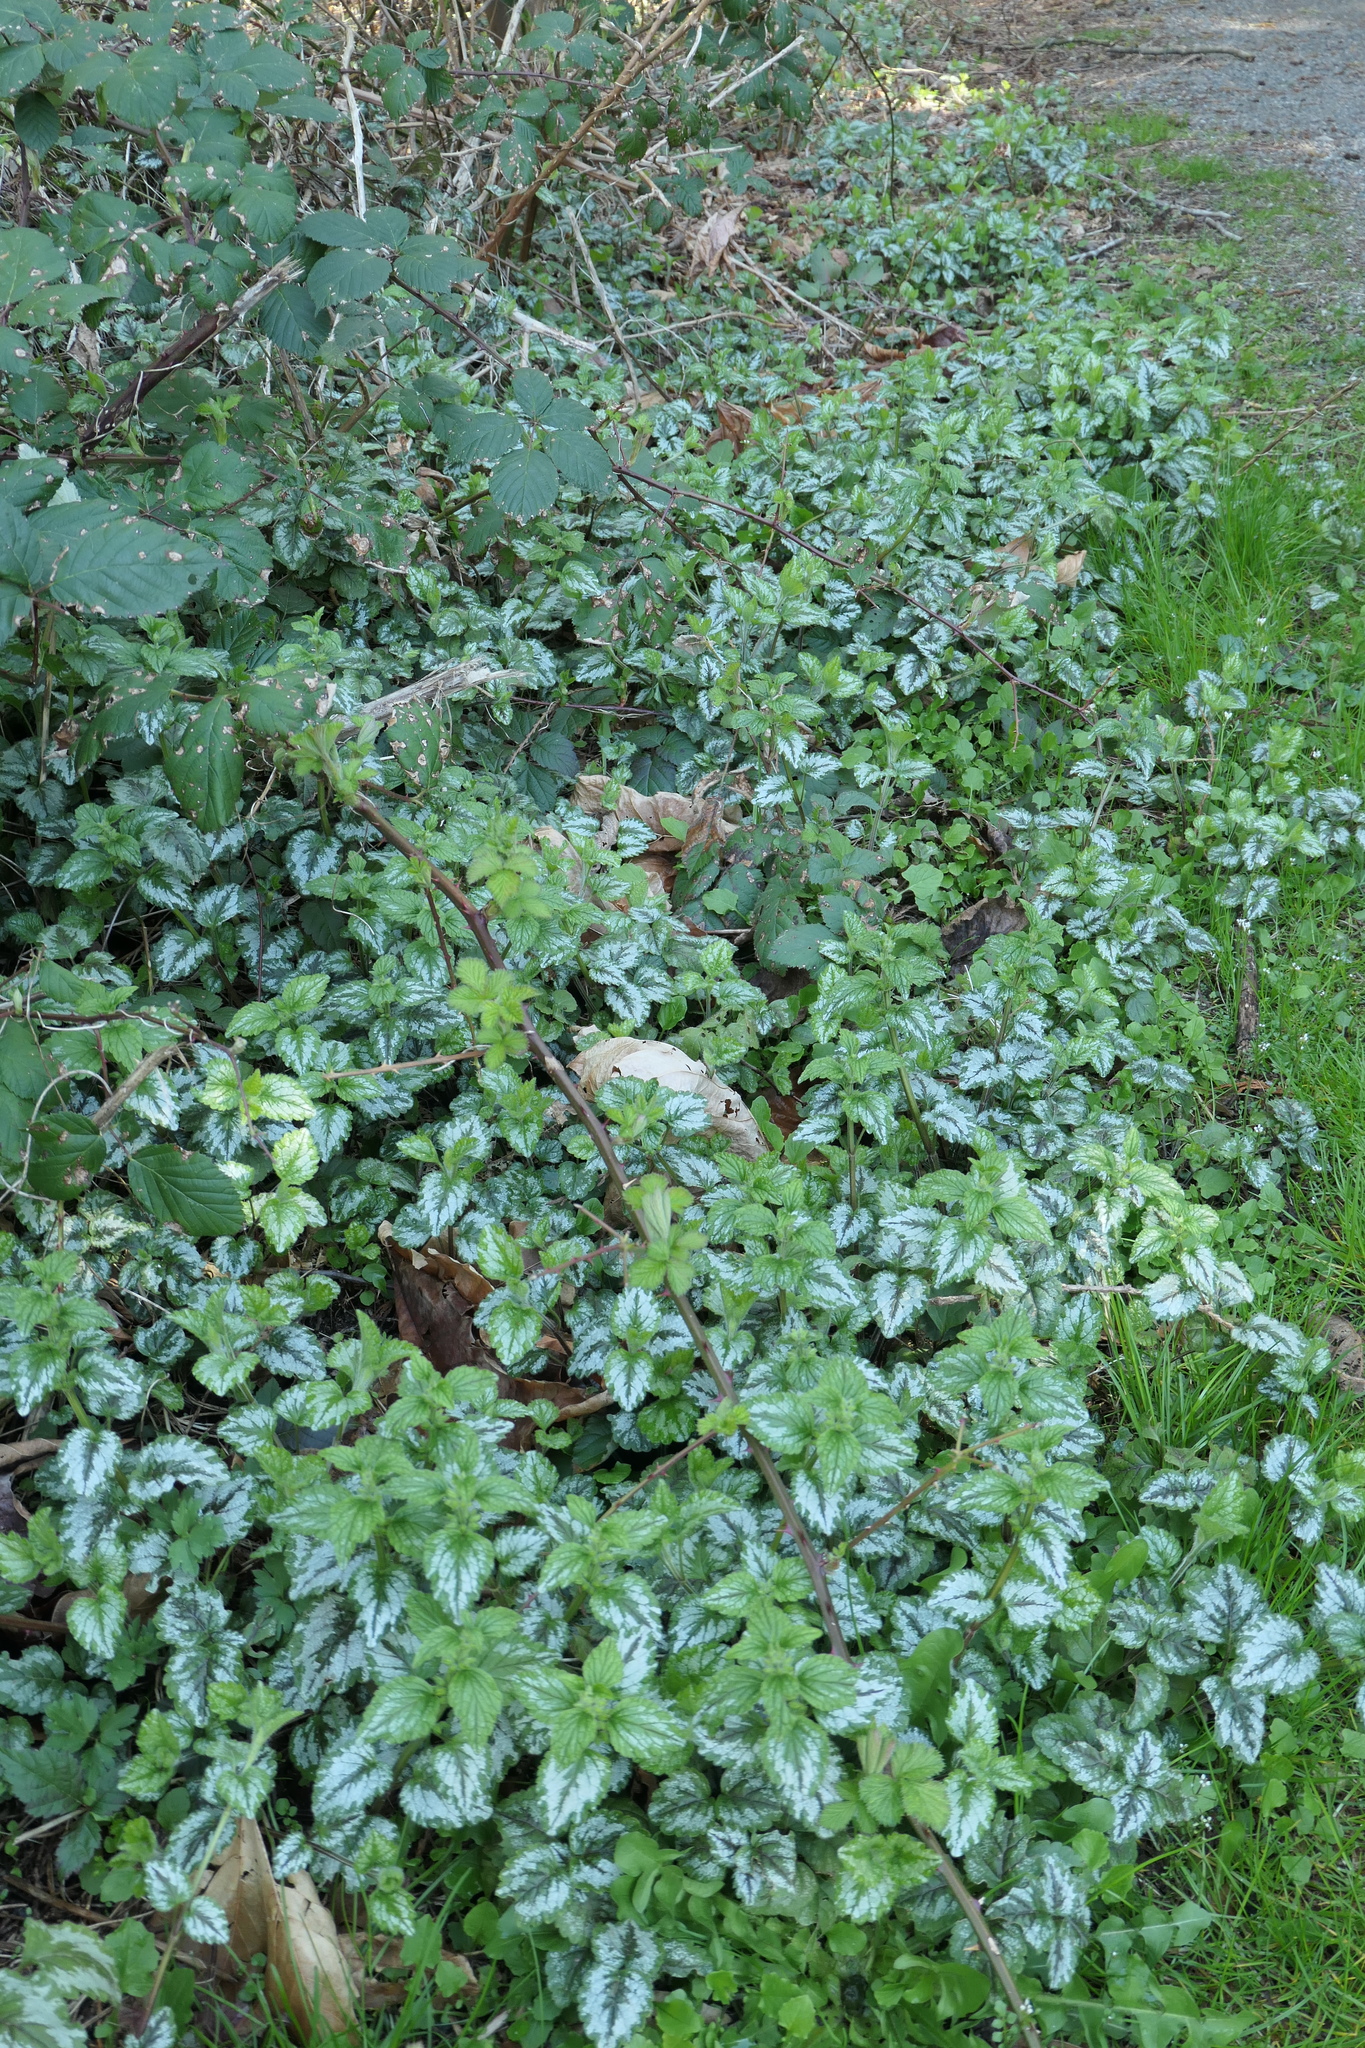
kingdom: Plantae
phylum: Tracheophyta
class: Magnoliopsida
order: Lamiales
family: Lamiaceae
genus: Lamium
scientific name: Lamium galeobdolon
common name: Yellow archangel
